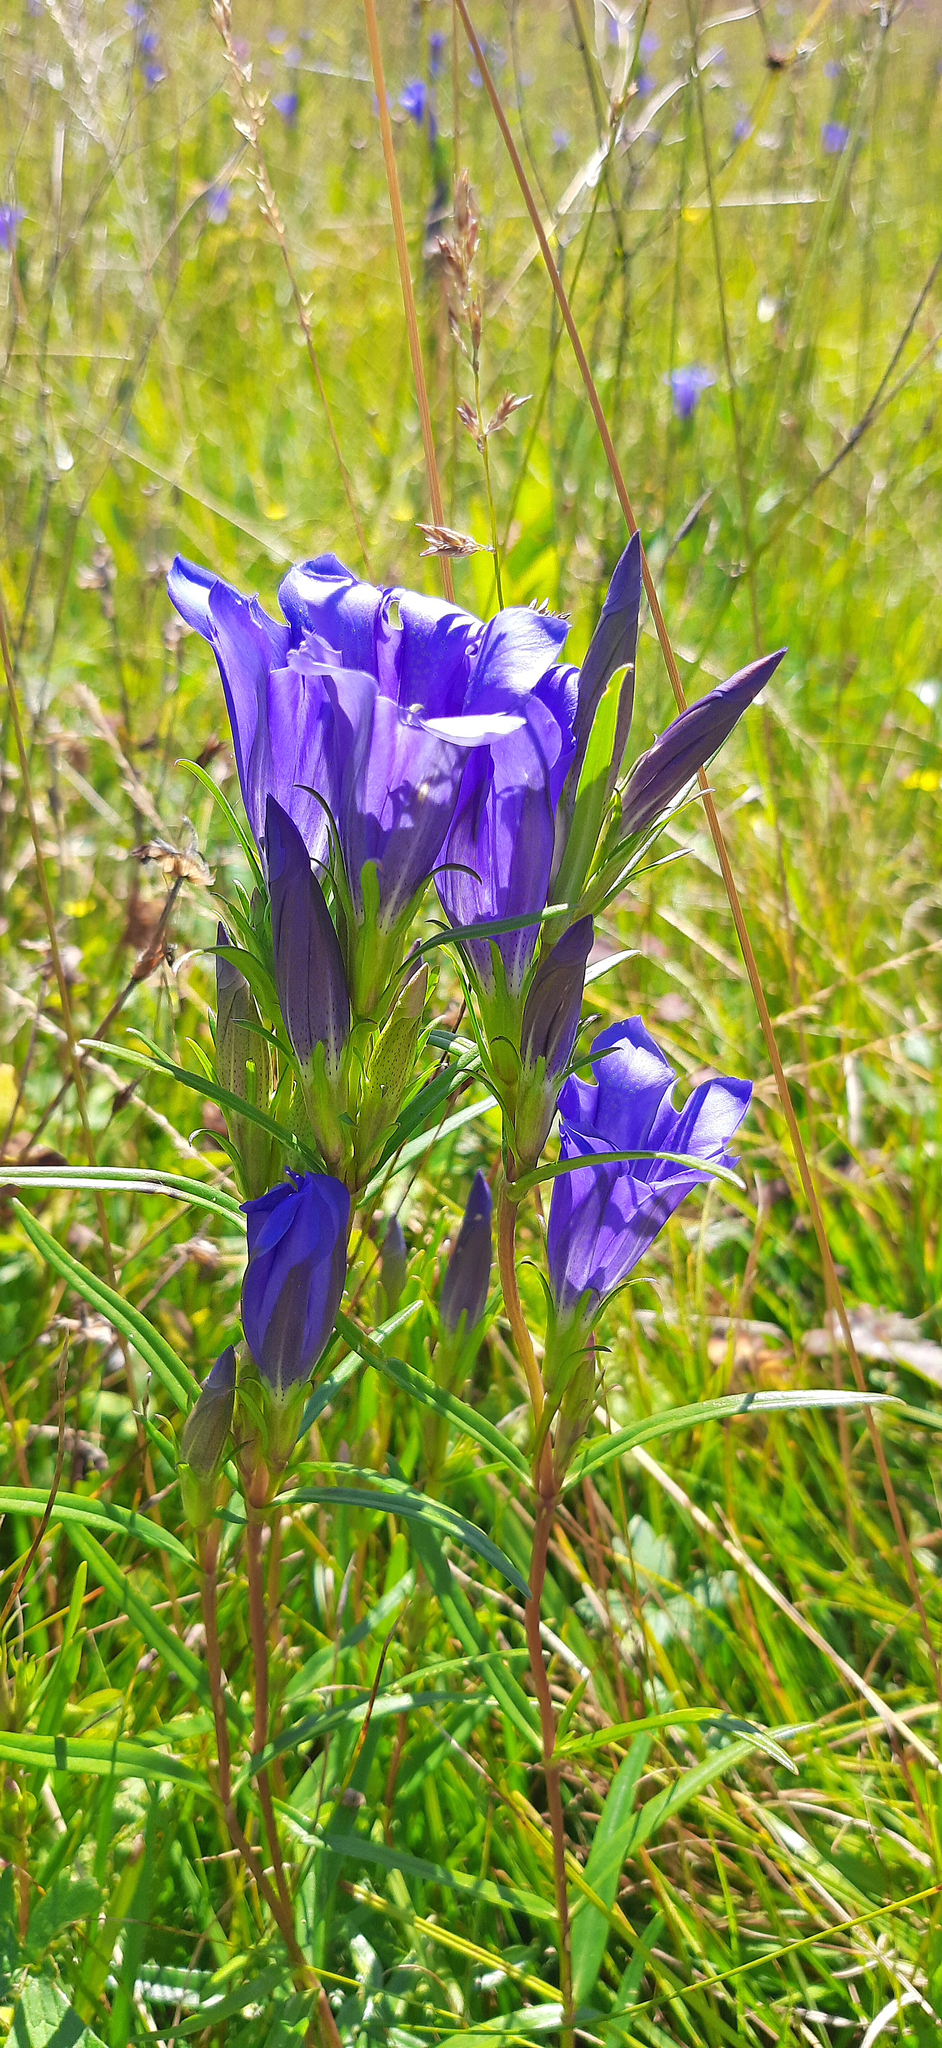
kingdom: Plantae
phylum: Tracheophyta
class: Magnoliopsida
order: Gentianales
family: Gentianaceae
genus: Gentiana
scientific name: Gentiana pneumonanthe
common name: Marsh gentian
